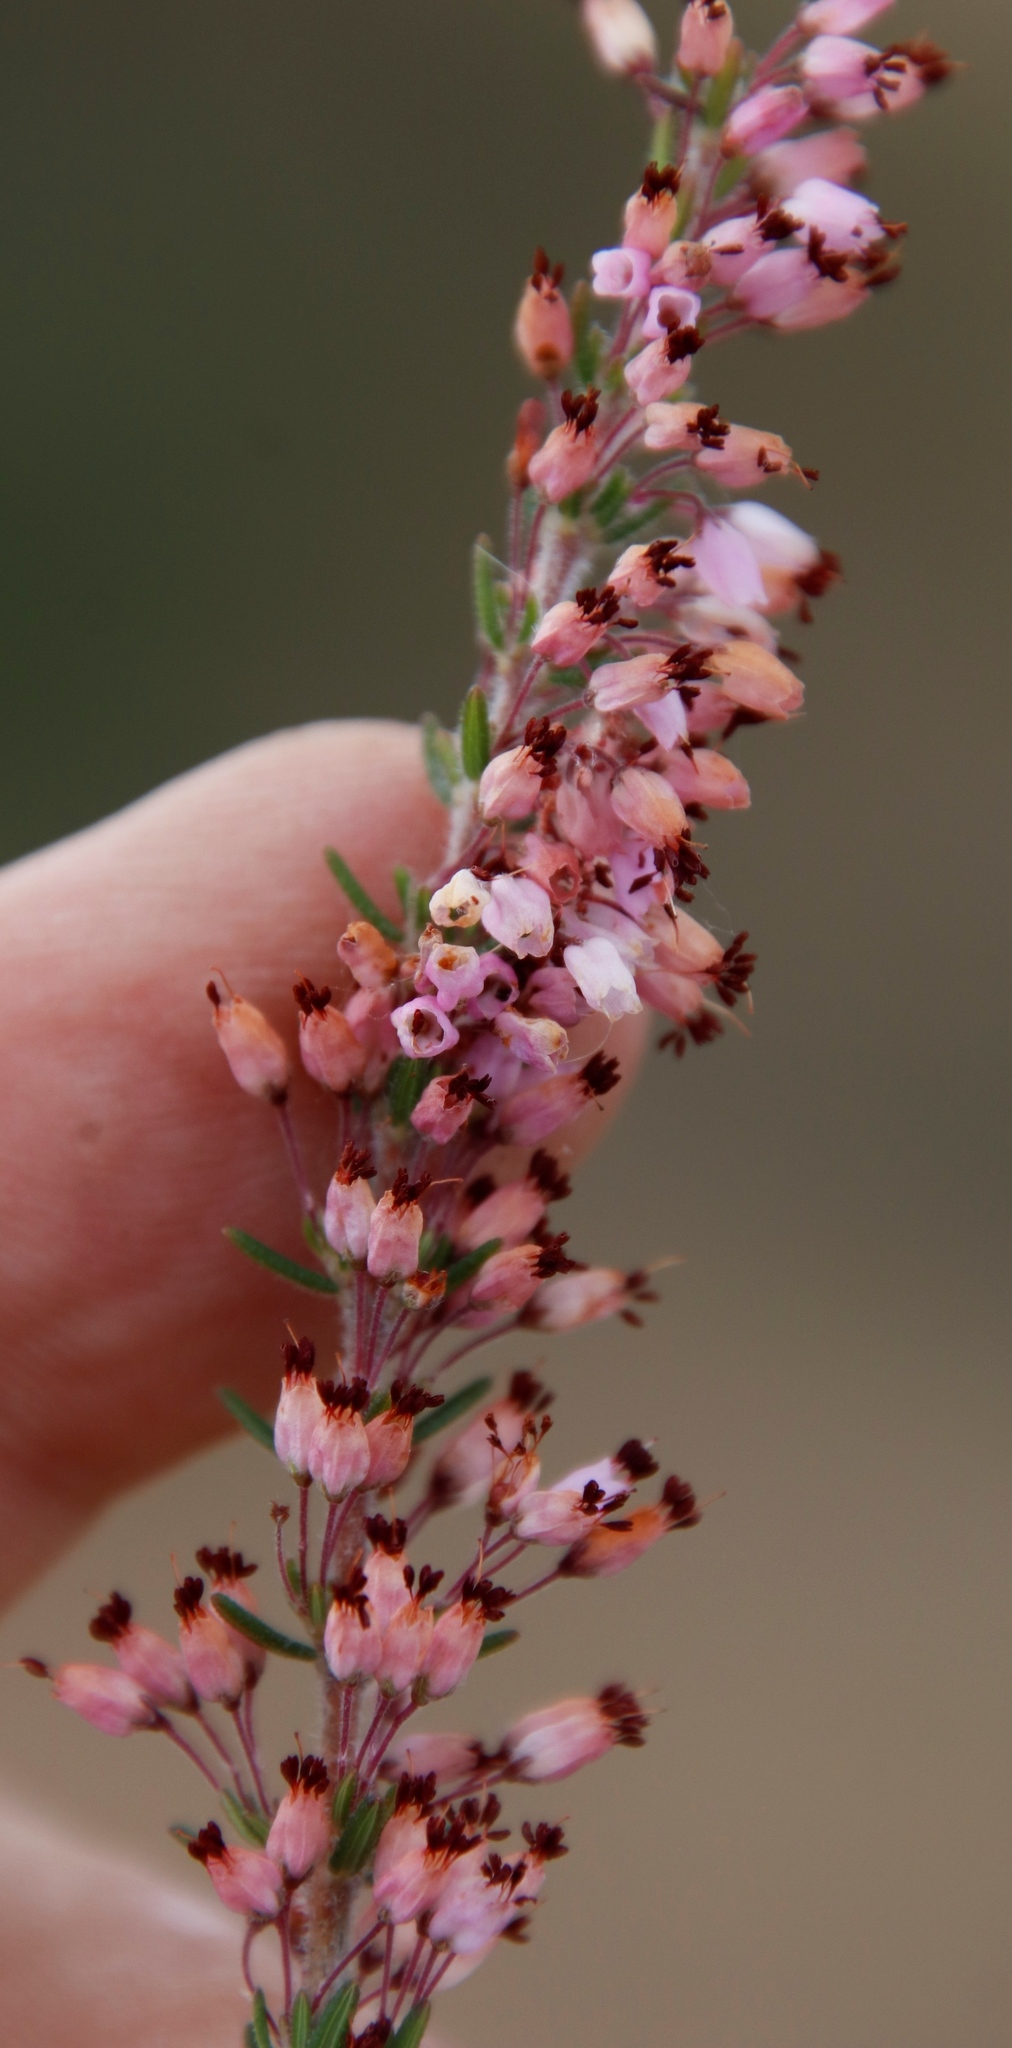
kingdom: Plantae
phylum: Tracheophyta
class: Magnoliopsida
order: Ericales
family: Ericaceae
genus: Erica
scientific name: Erica nudiflora
